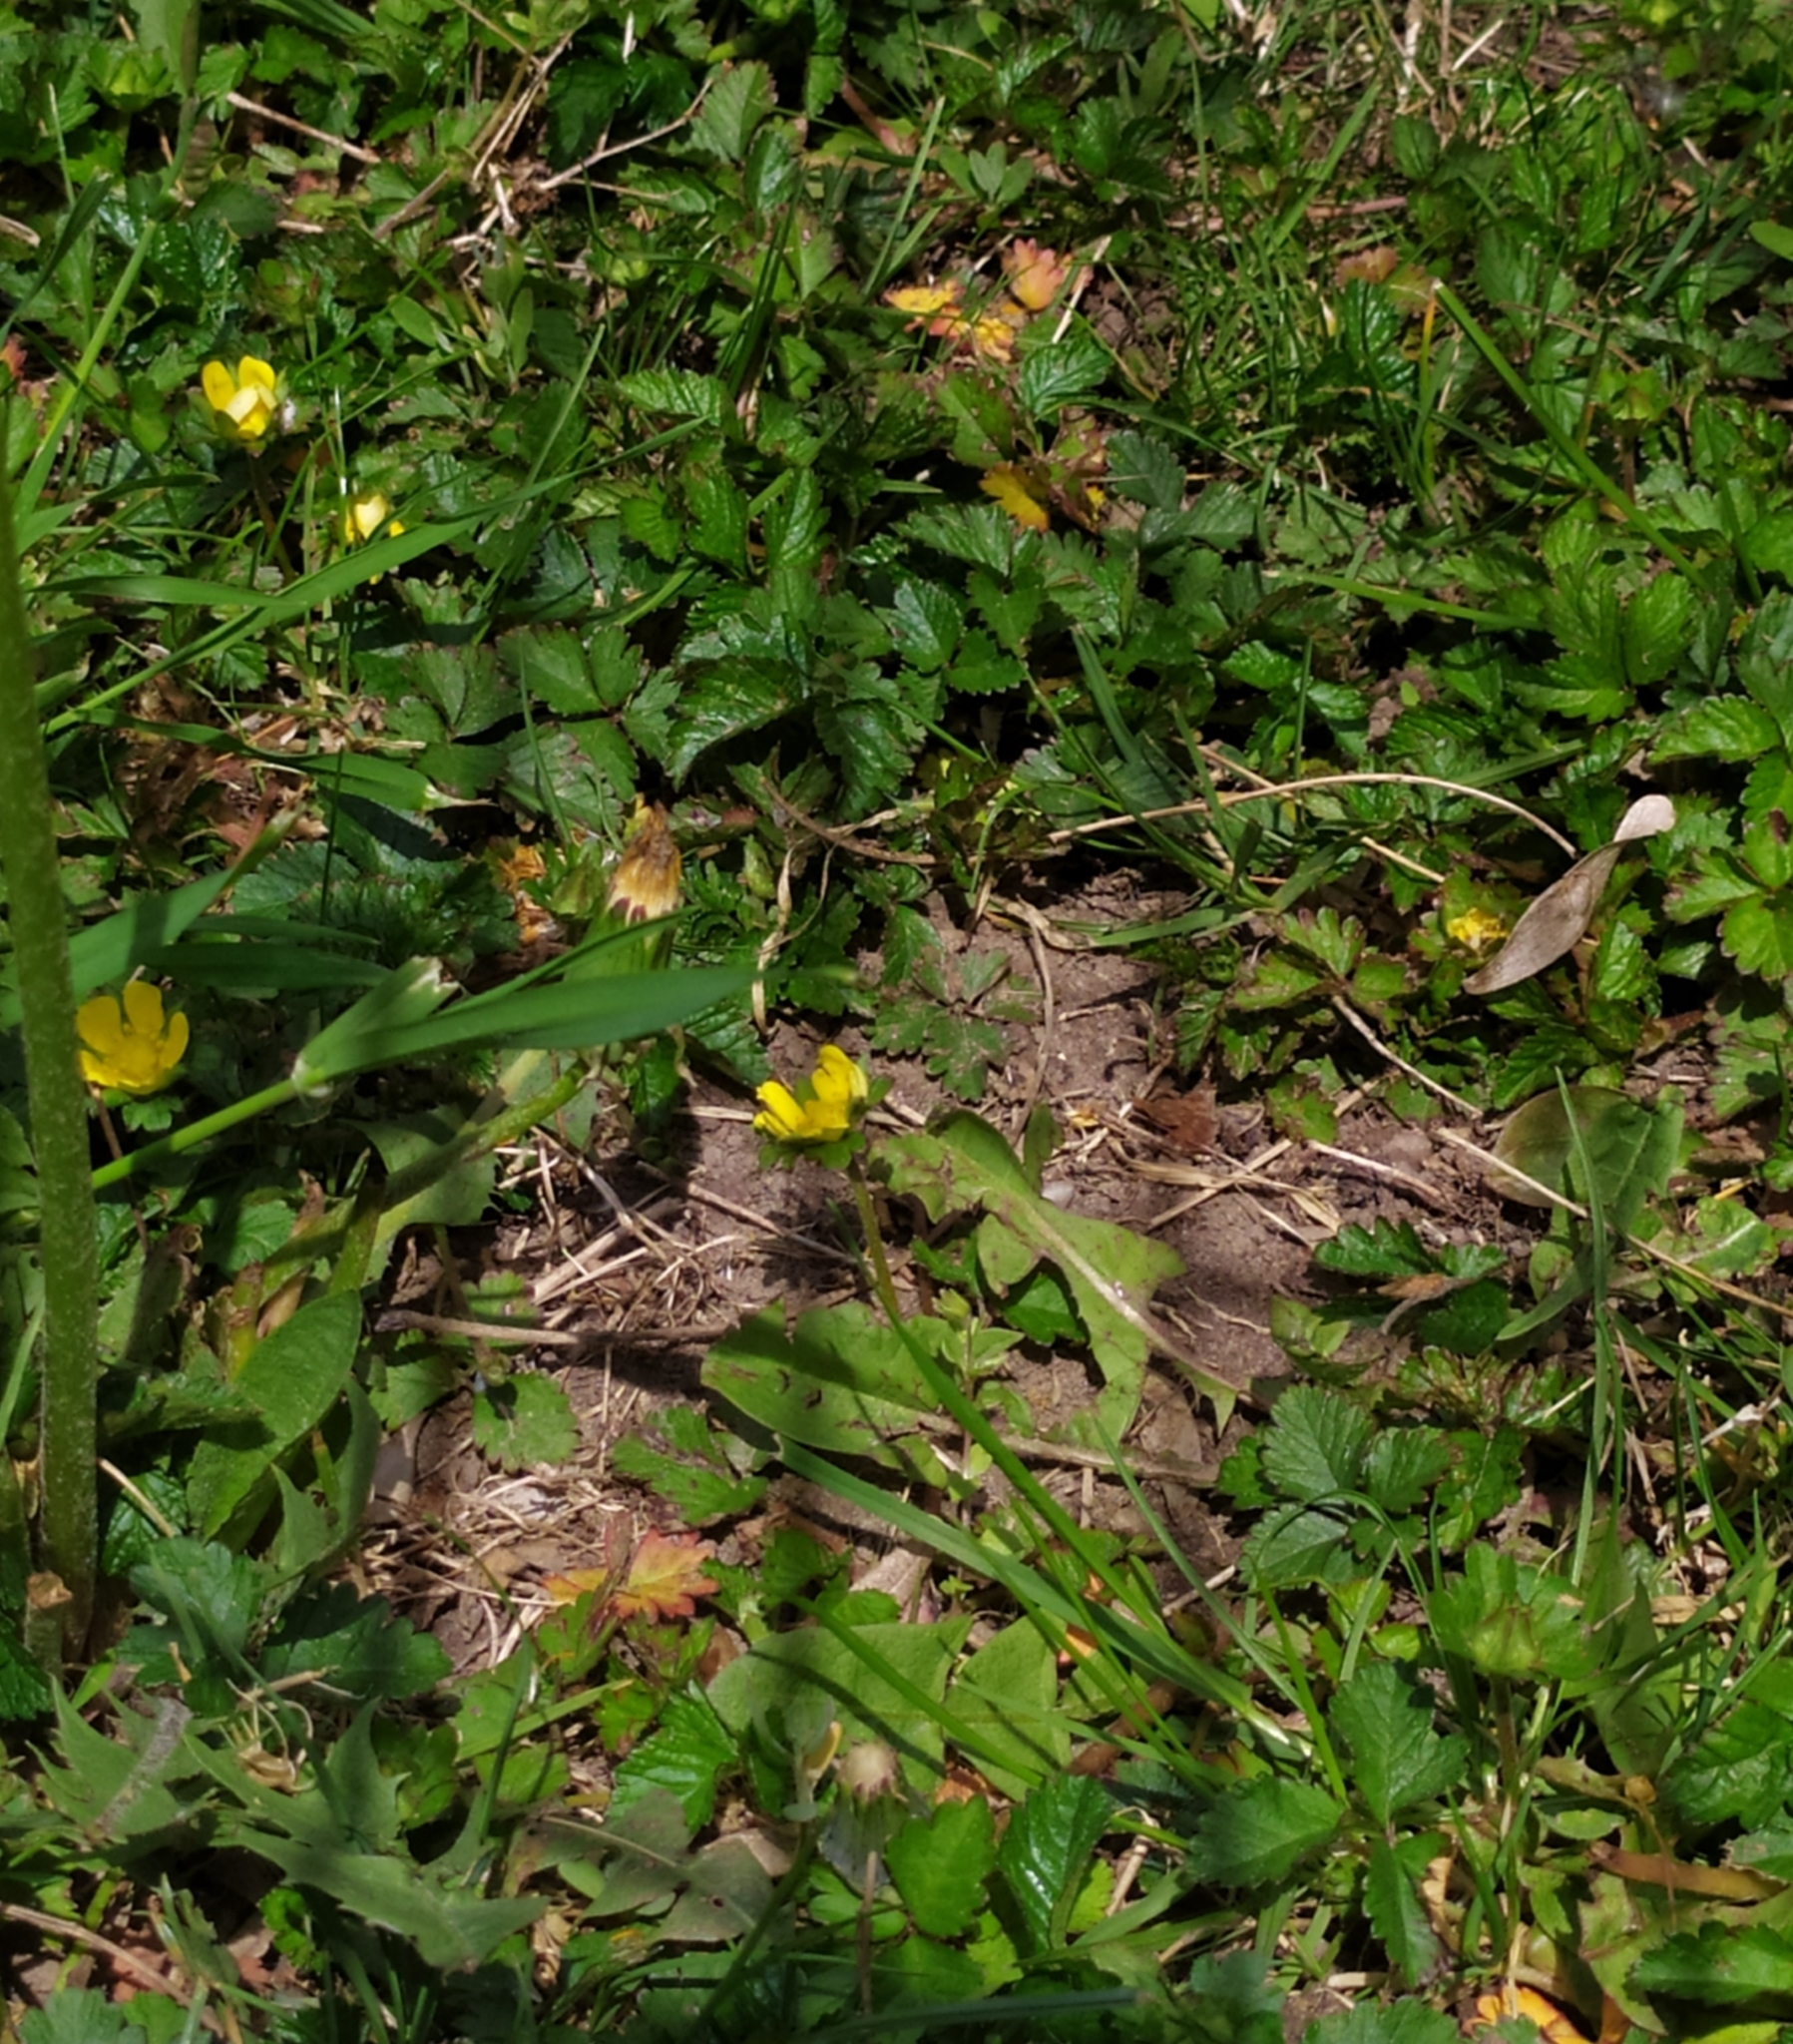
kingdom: Plantae
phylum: Tracheophyta
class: Magnoliopsida
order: Rosales
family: Rosaceae
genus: Potentilla
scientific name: Potentilla indica
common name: Yellow-flowered strawberry
